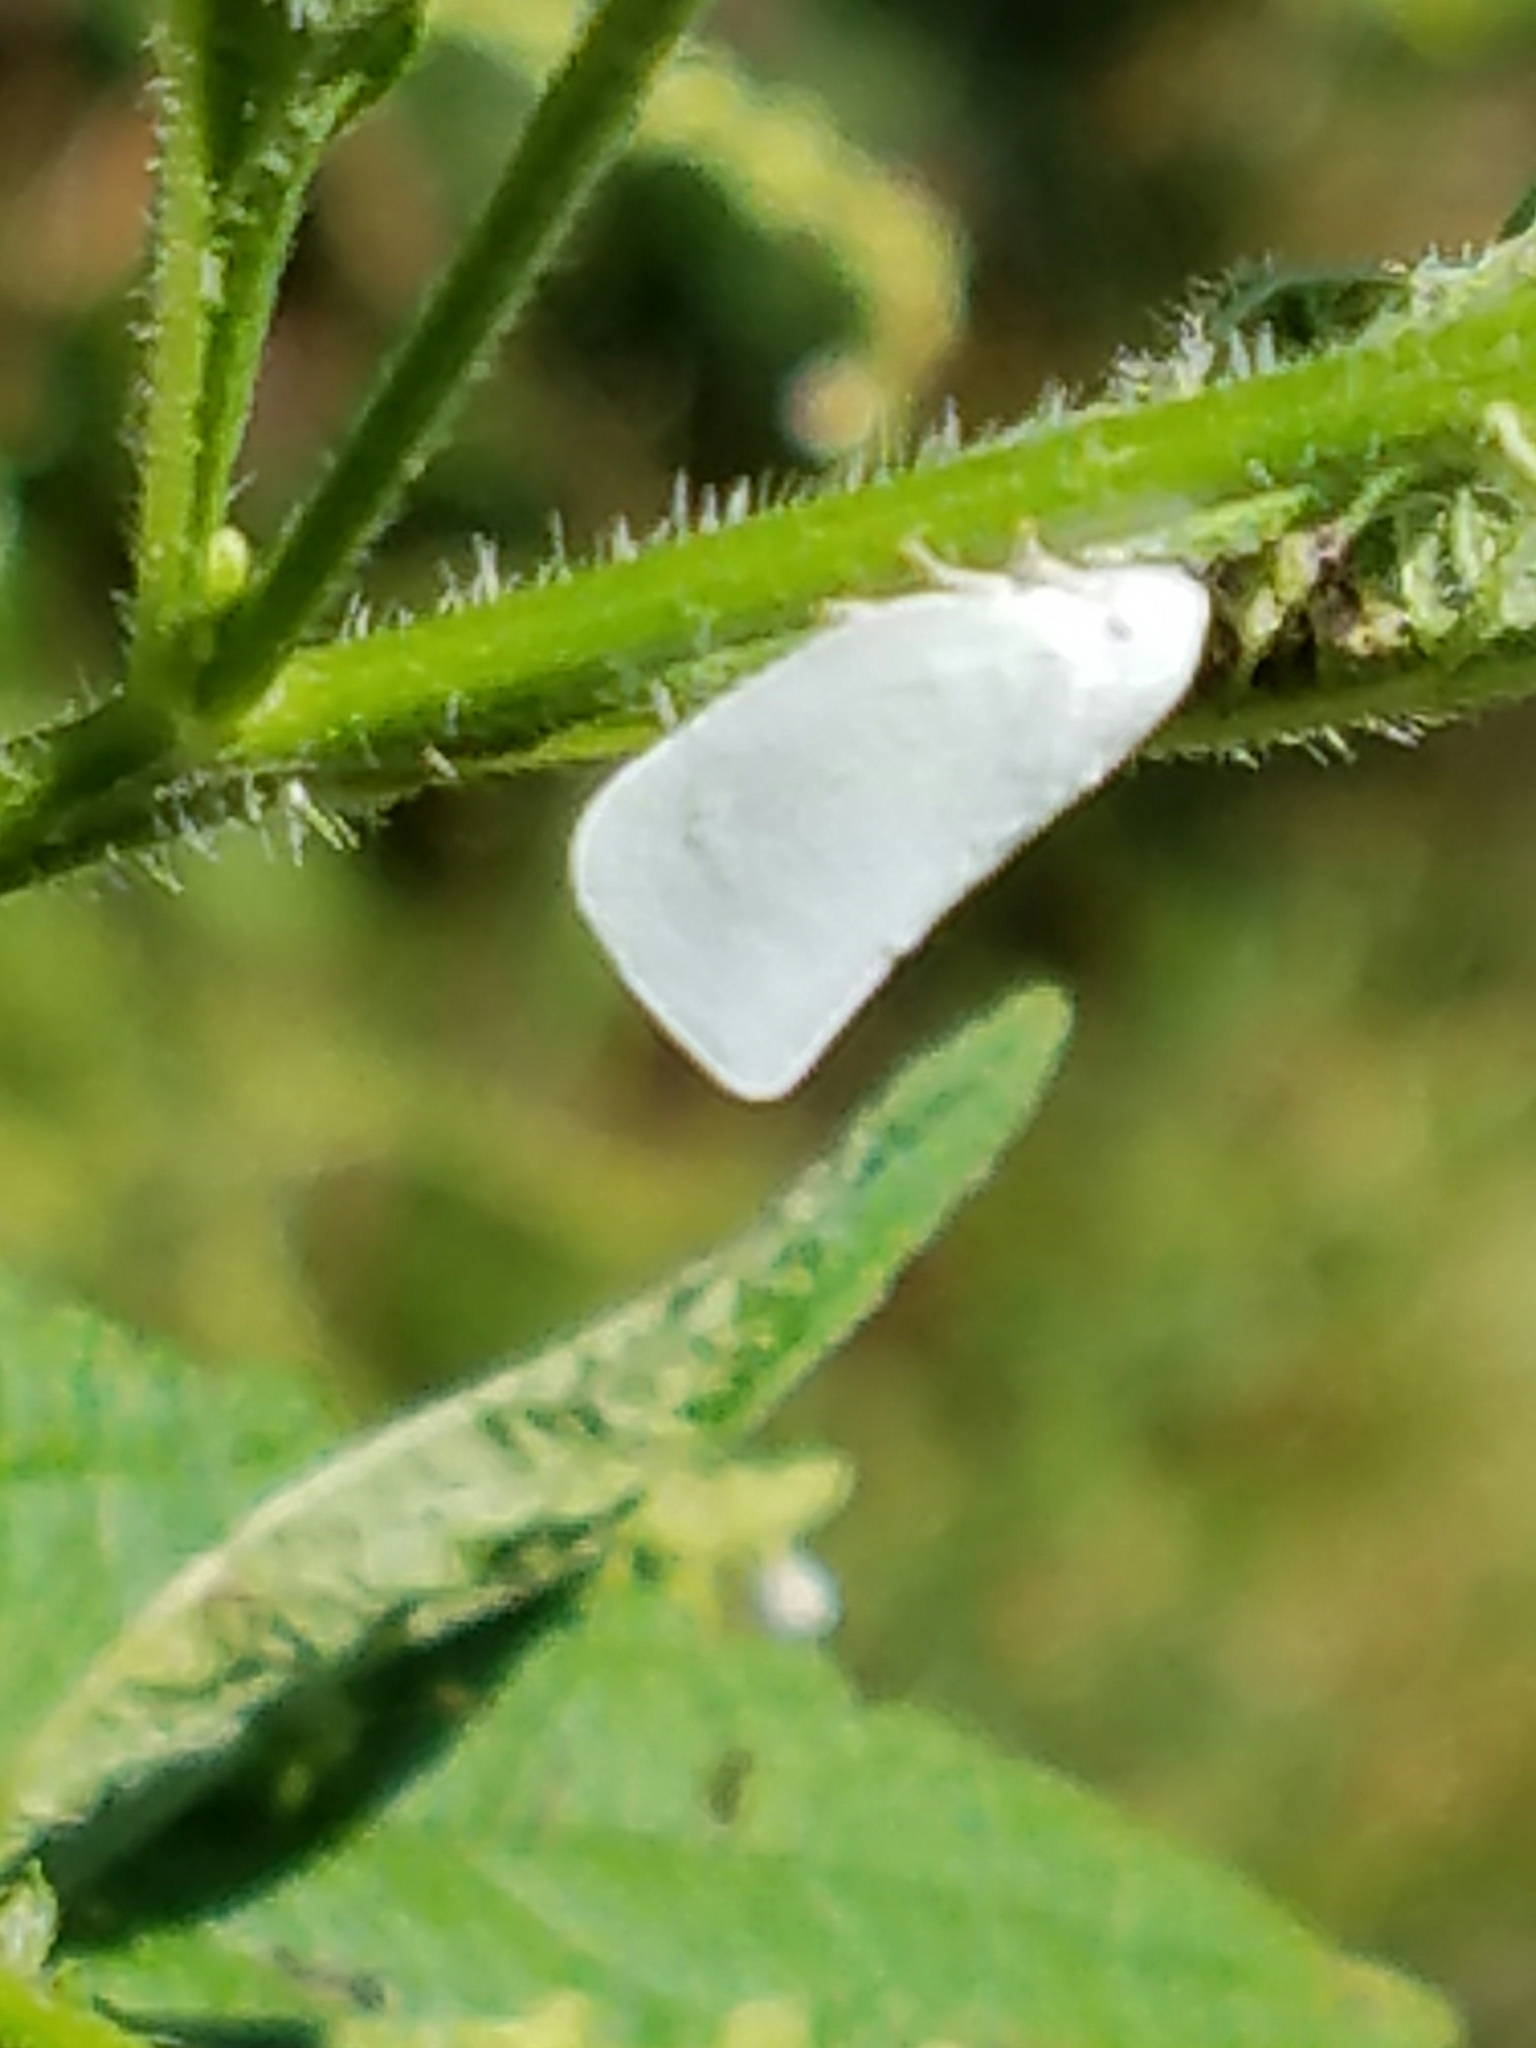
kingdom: Animalia
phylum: Arthropoda
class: Insecta
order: Hemiptera
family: Flatidae
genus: Flatormenis
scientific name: Flatormenis proxima
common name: Northern flatid planthopper
